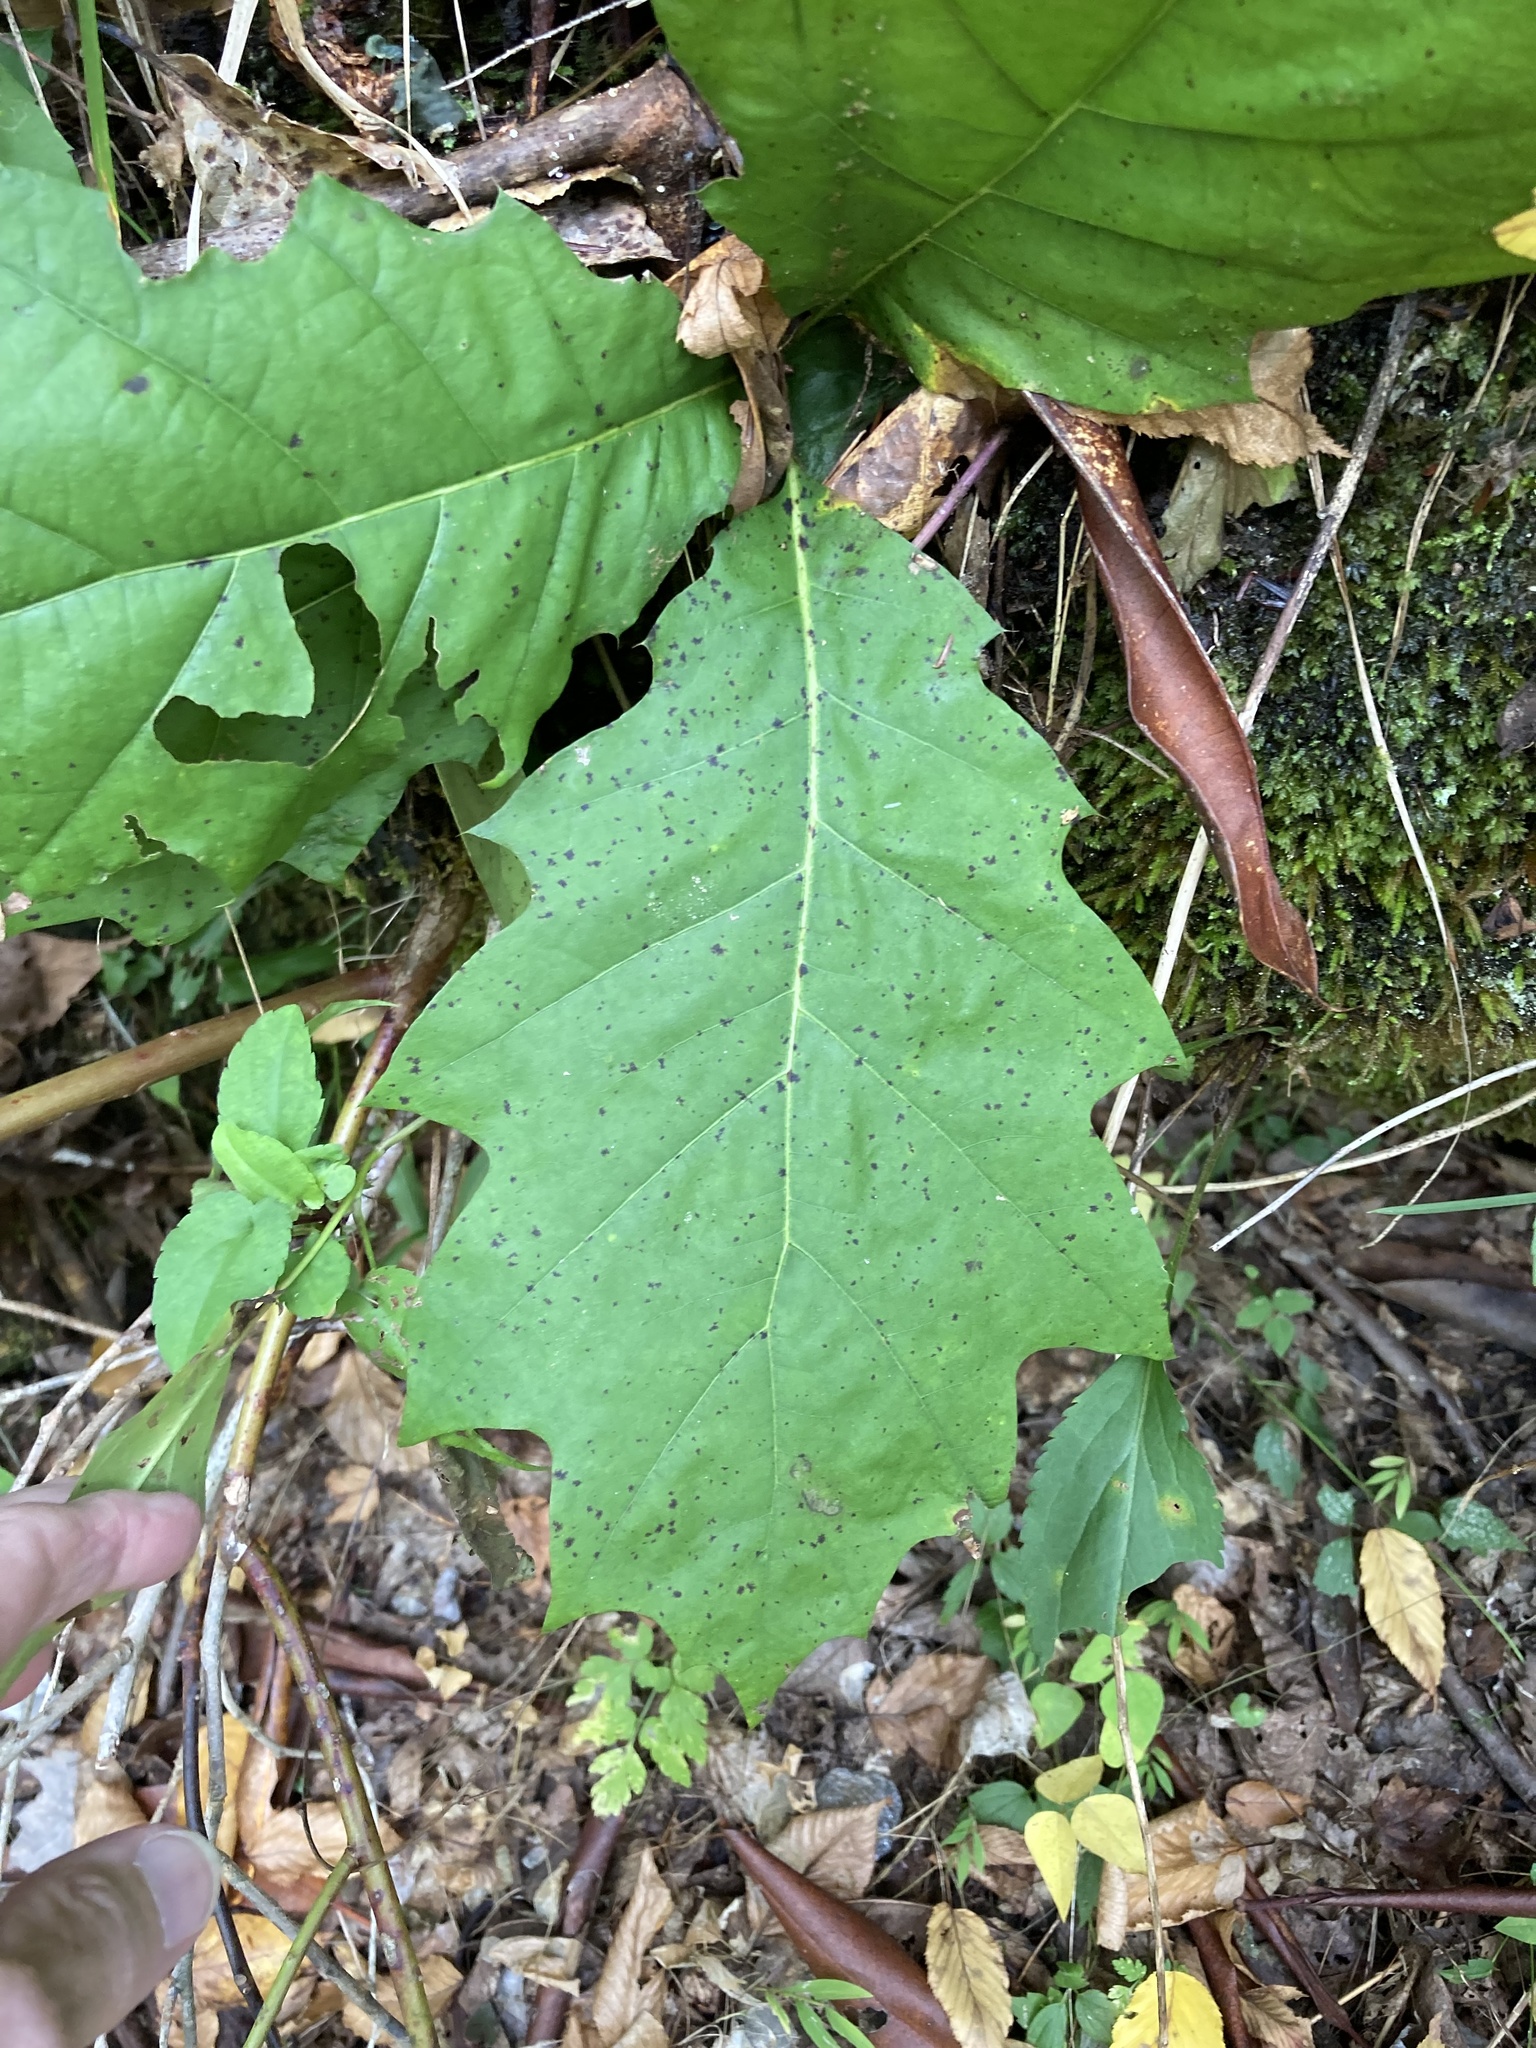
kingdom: Plantae
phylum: Tracheophyta
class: Magnoliopsida
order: Fagales
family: Fagaceae
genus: Quercus
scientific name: Quercus rubra
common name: Red oak
